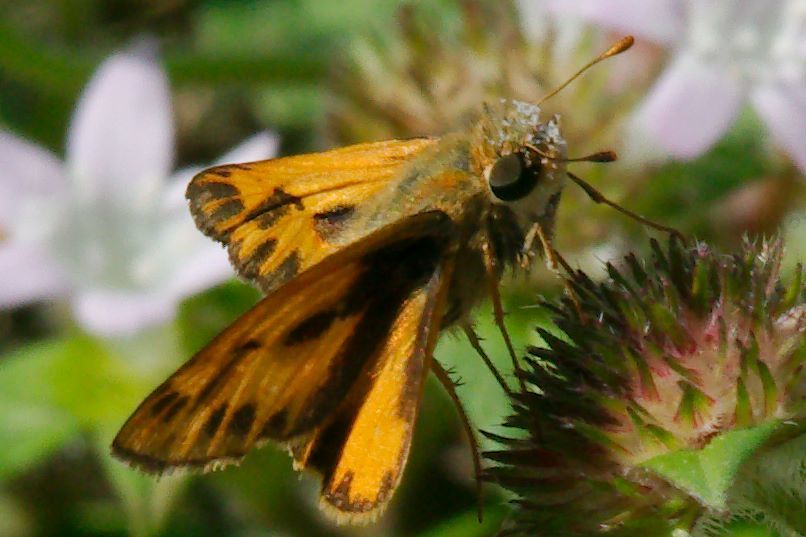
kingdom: Animalia
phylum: Arthropoda
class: Insecta
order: Lepidoptera
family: Hesperiidae
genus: Hylephila
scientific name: Hylephila phyleus
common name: Fiery skipper
